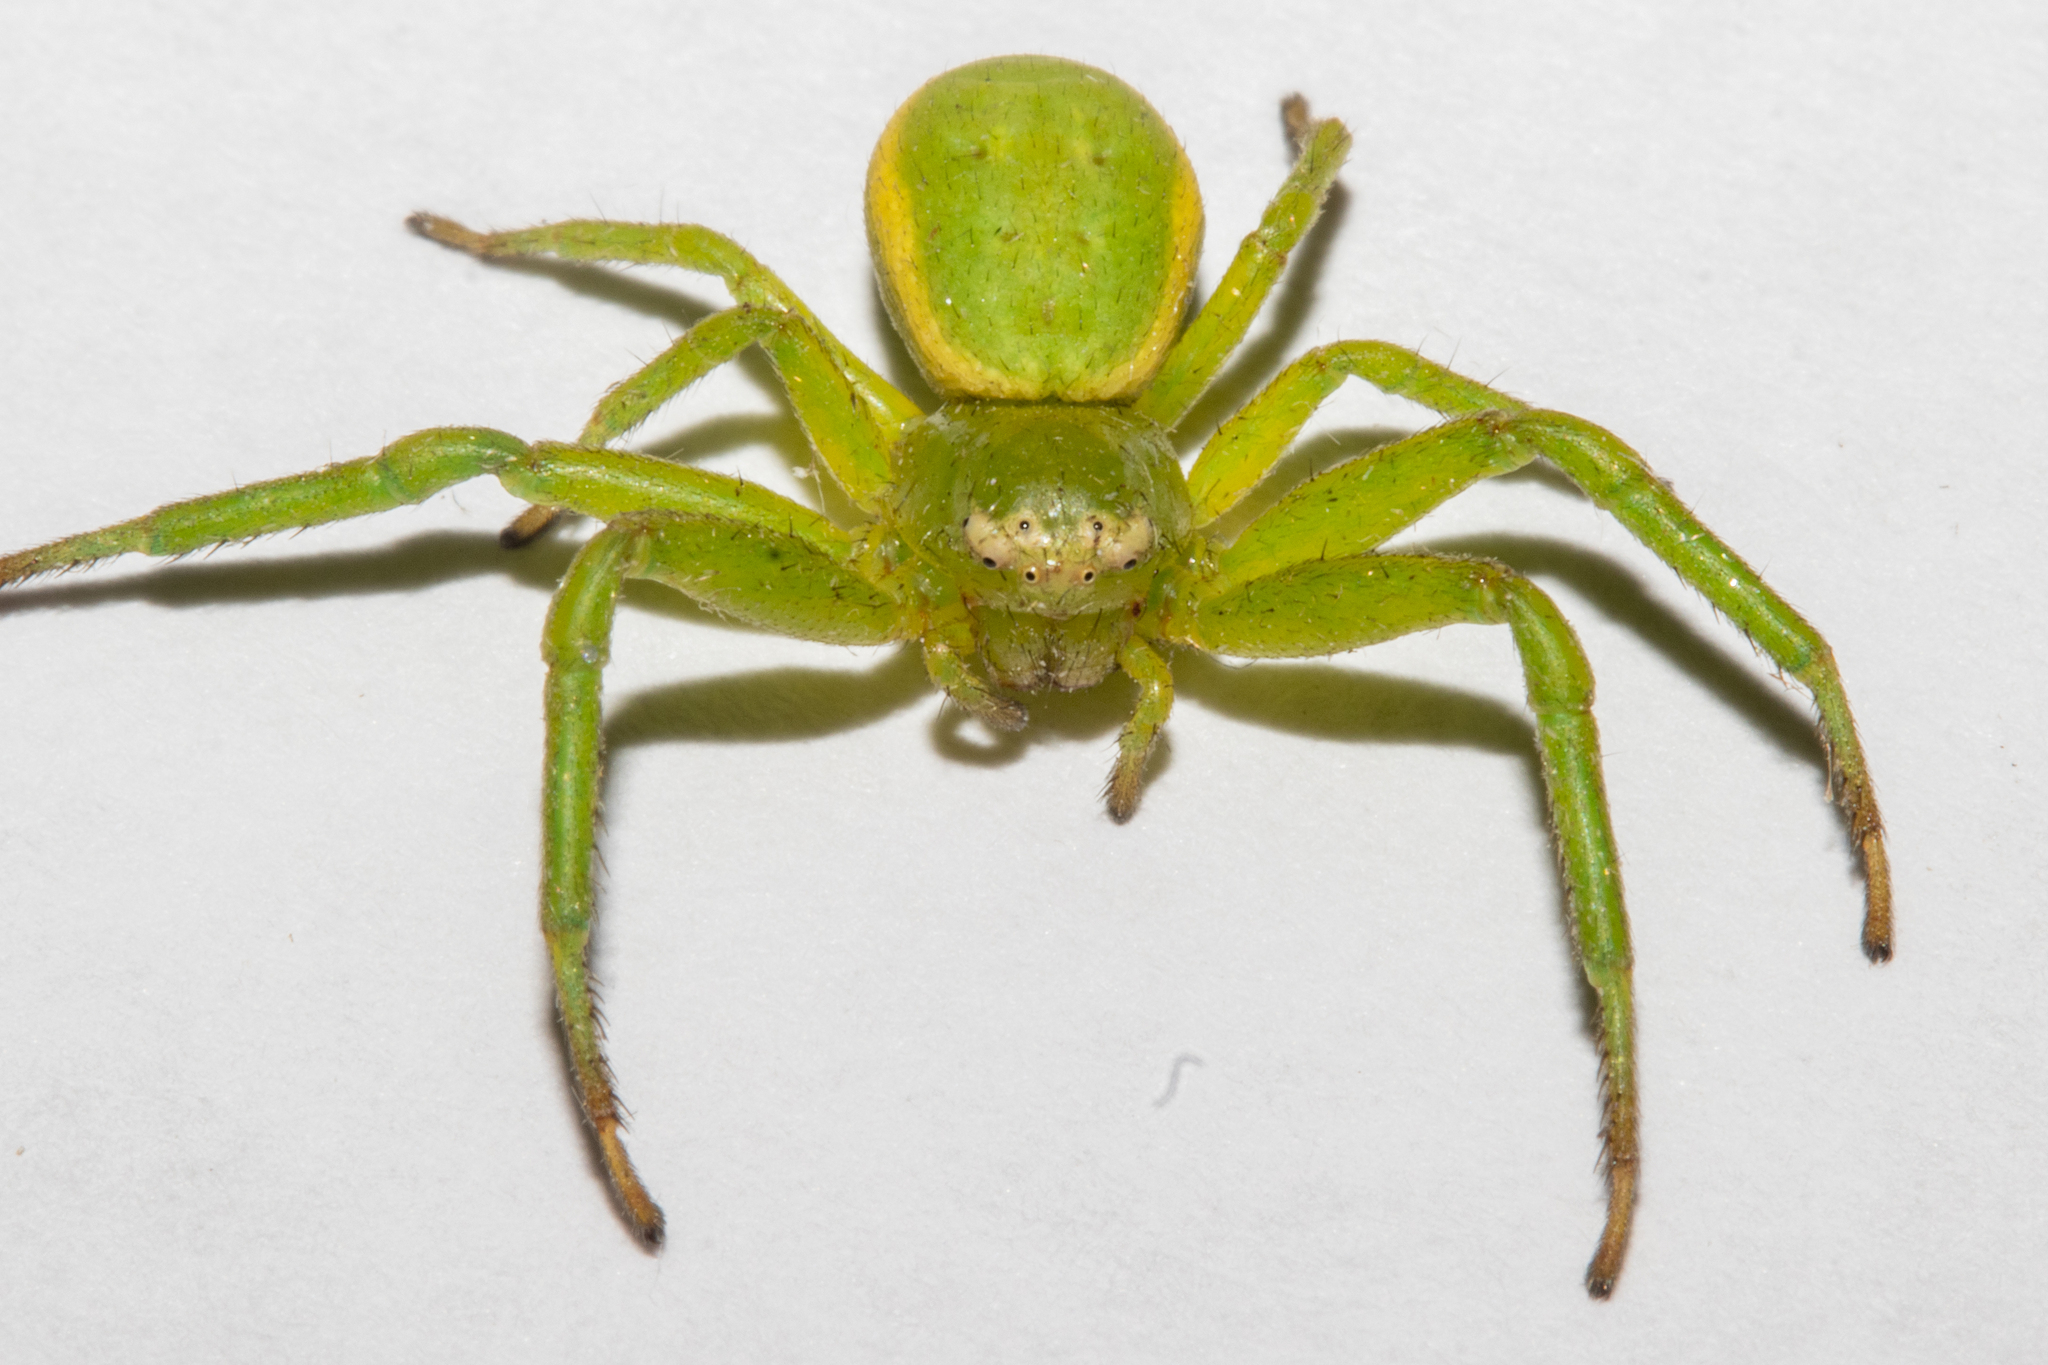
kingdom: Animalia
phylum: Arthropoda
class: Arachnida
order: Araneae
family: Thomisidae
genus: Diaea
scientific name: Diaea albolimbata
